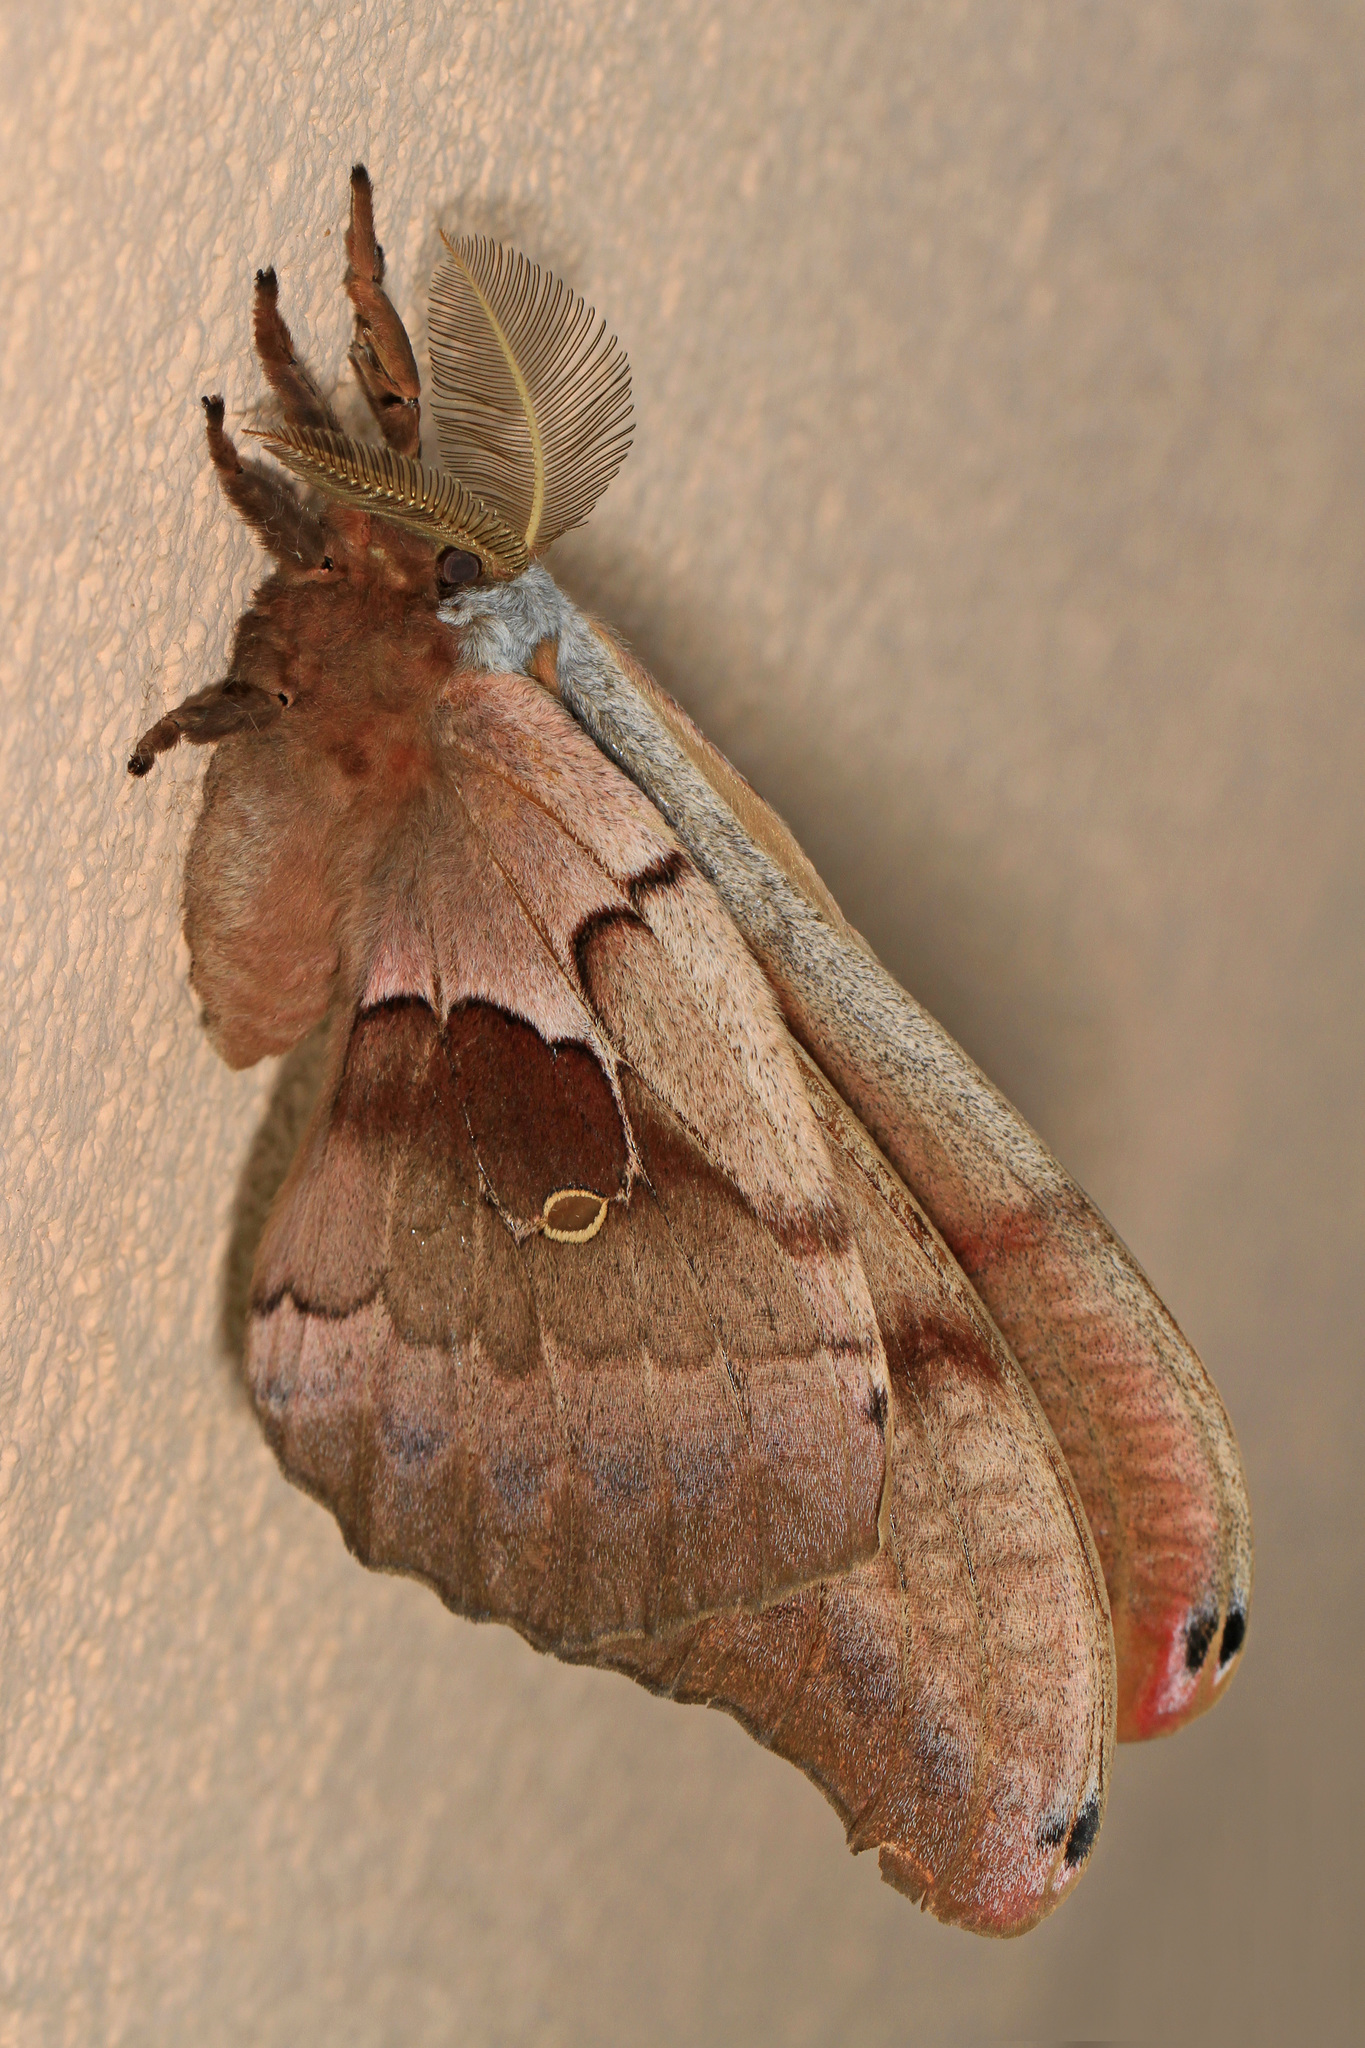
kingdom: Animalia
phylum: Arthropoda
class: Insecta
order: Lepidoptera
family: Saturniidae
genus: Antheraea
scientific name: Antheraea polyphemus
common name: Polyphemus moth
